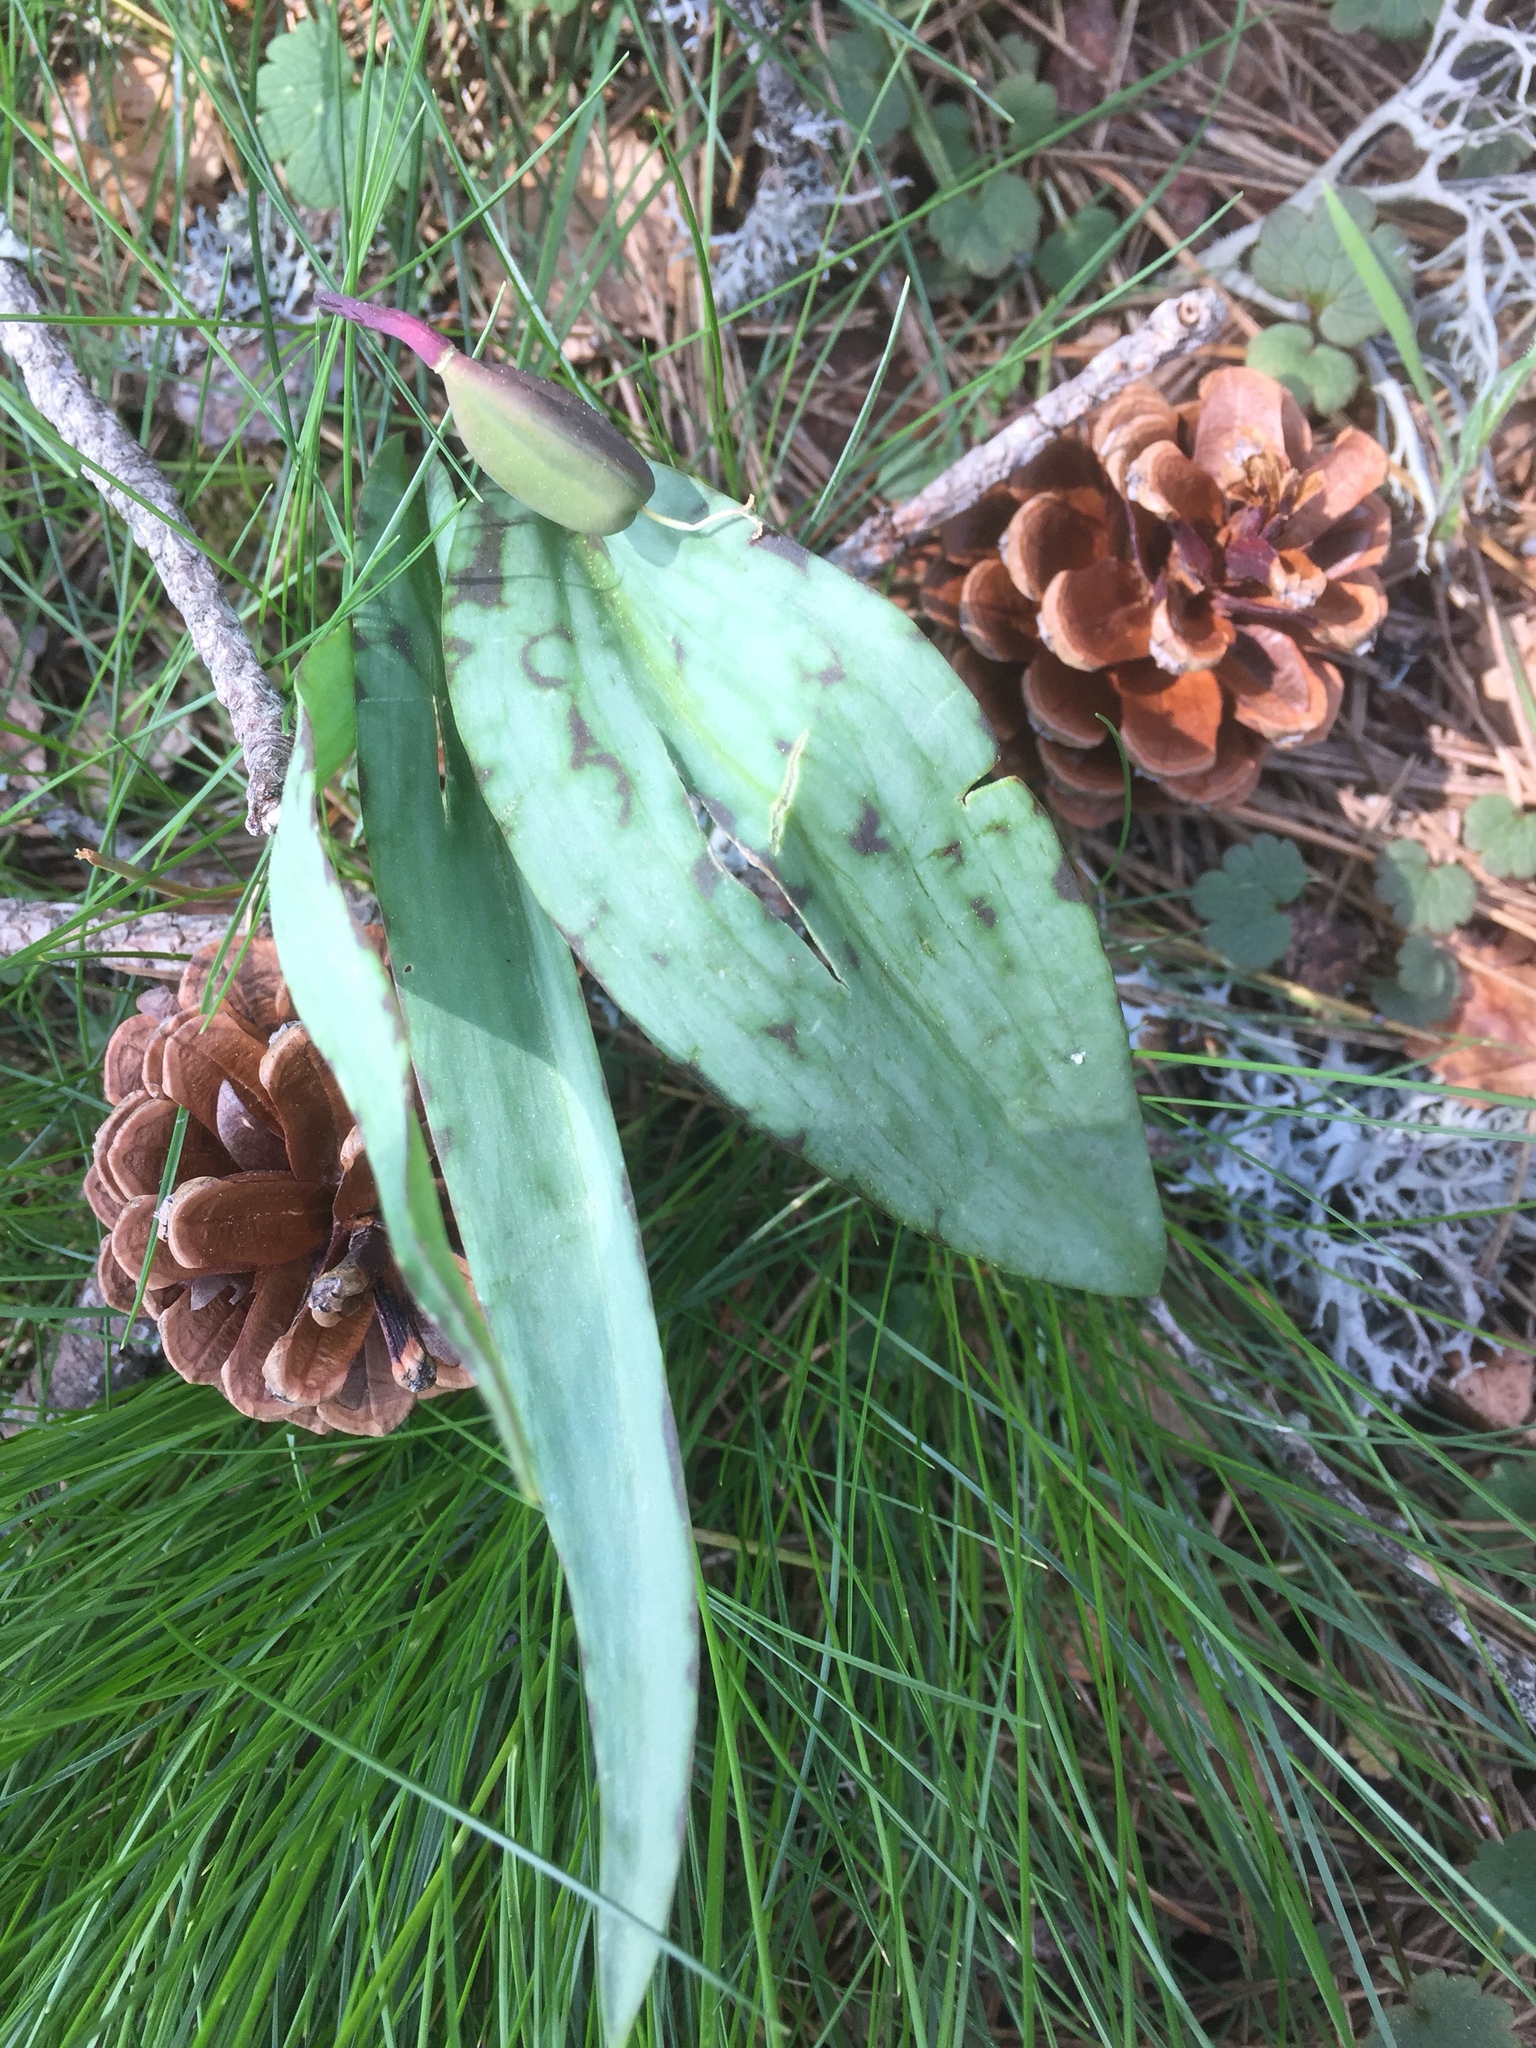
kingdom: Plantae
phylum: Tracheophyta
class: Liliopsida
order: Liliales
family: Liliaceae
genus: Erythronium
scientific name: Erythronium dens-canis
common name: Dog's-tooth-violet
